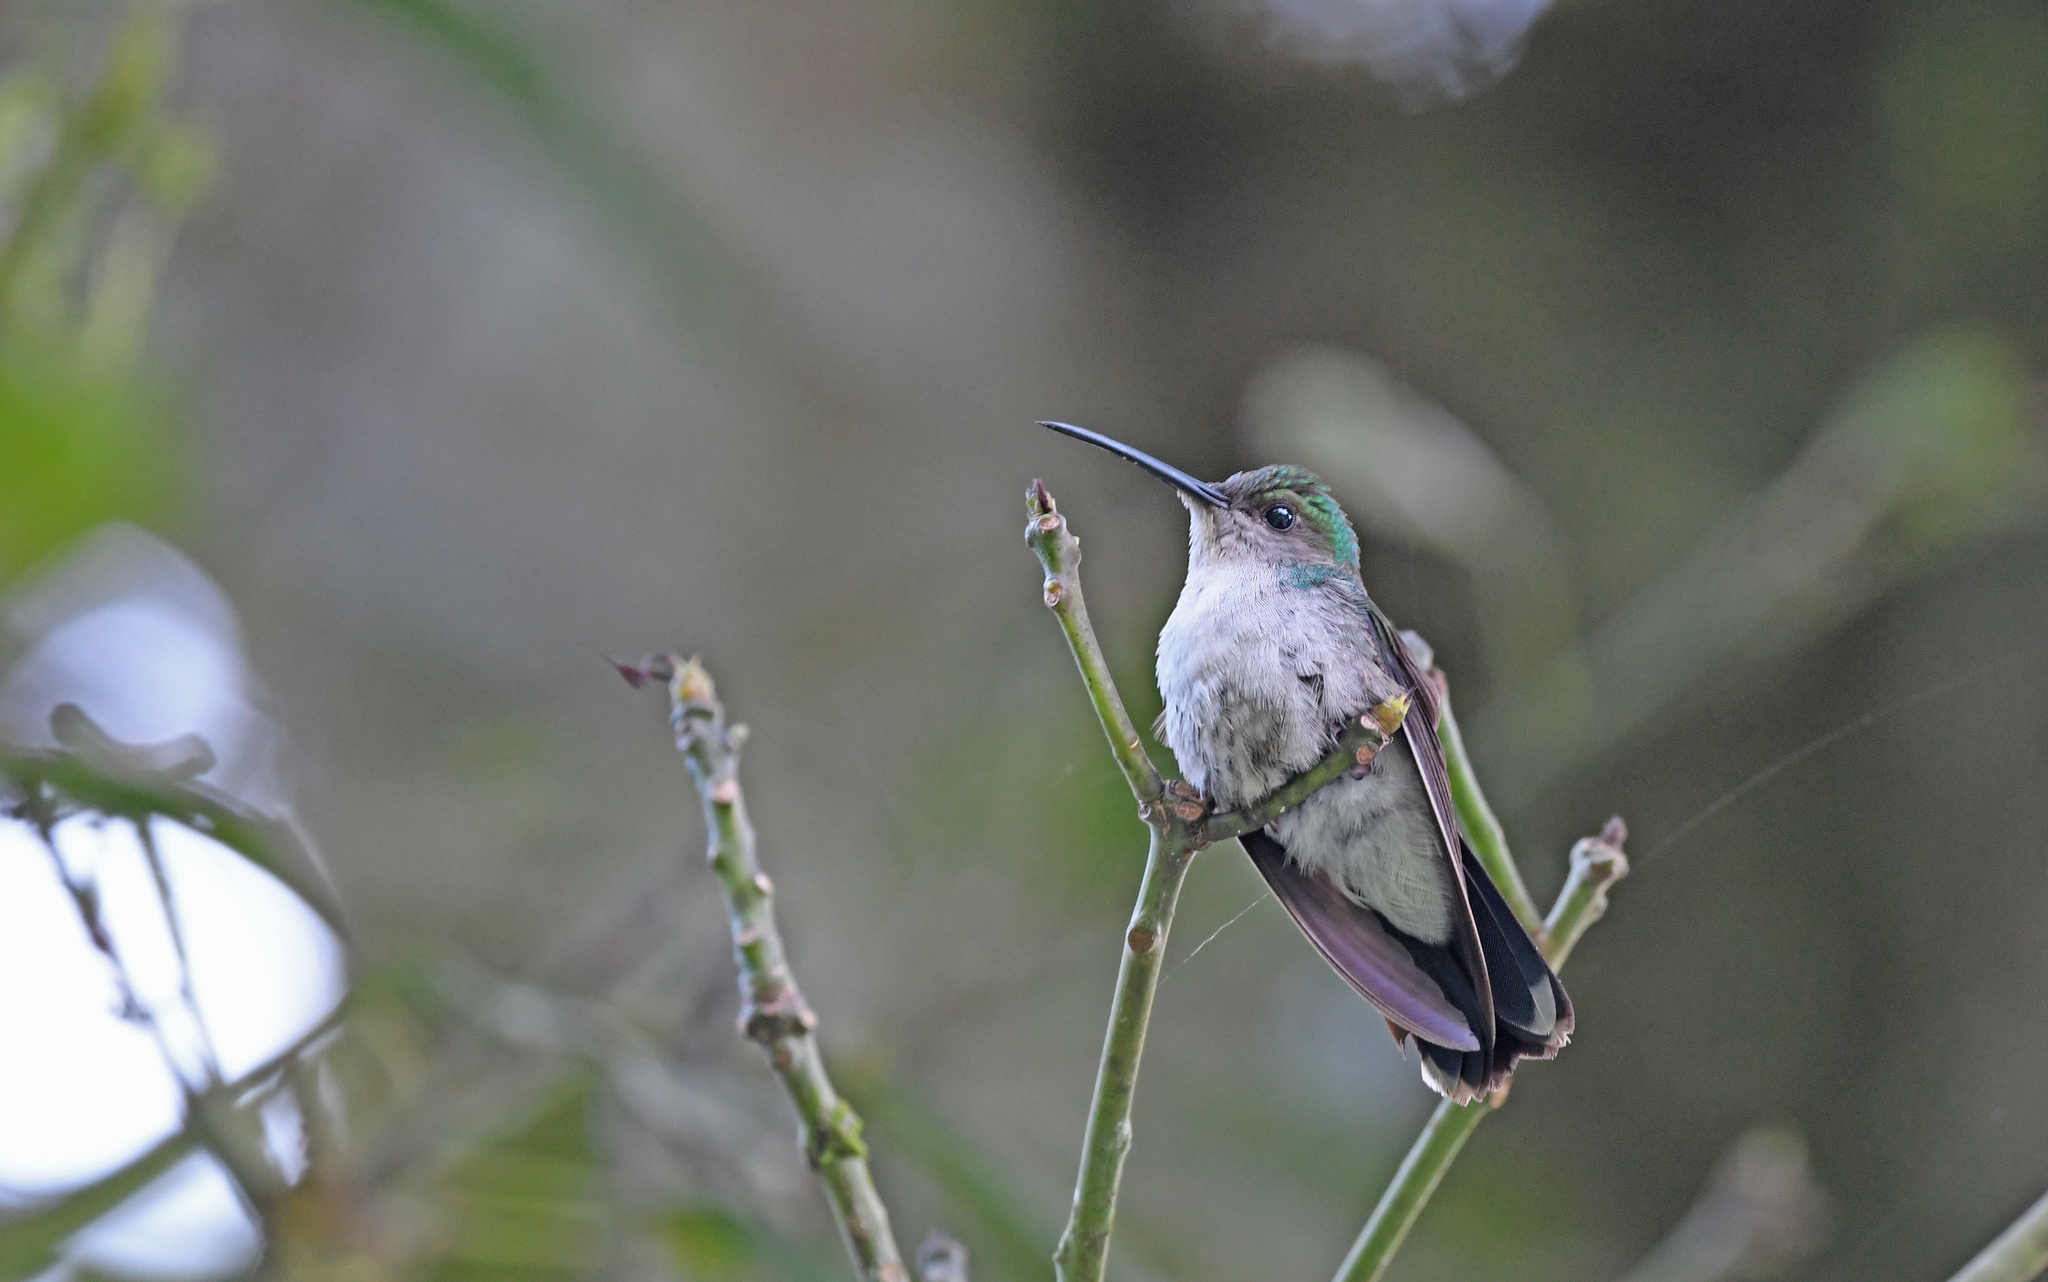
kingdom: Animalia
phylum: Chordata
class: Aves
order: Apodiformes
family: Trochilidae
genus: Chalybura
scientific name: Chalybura buffonii
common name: White-vented plumeleteer
